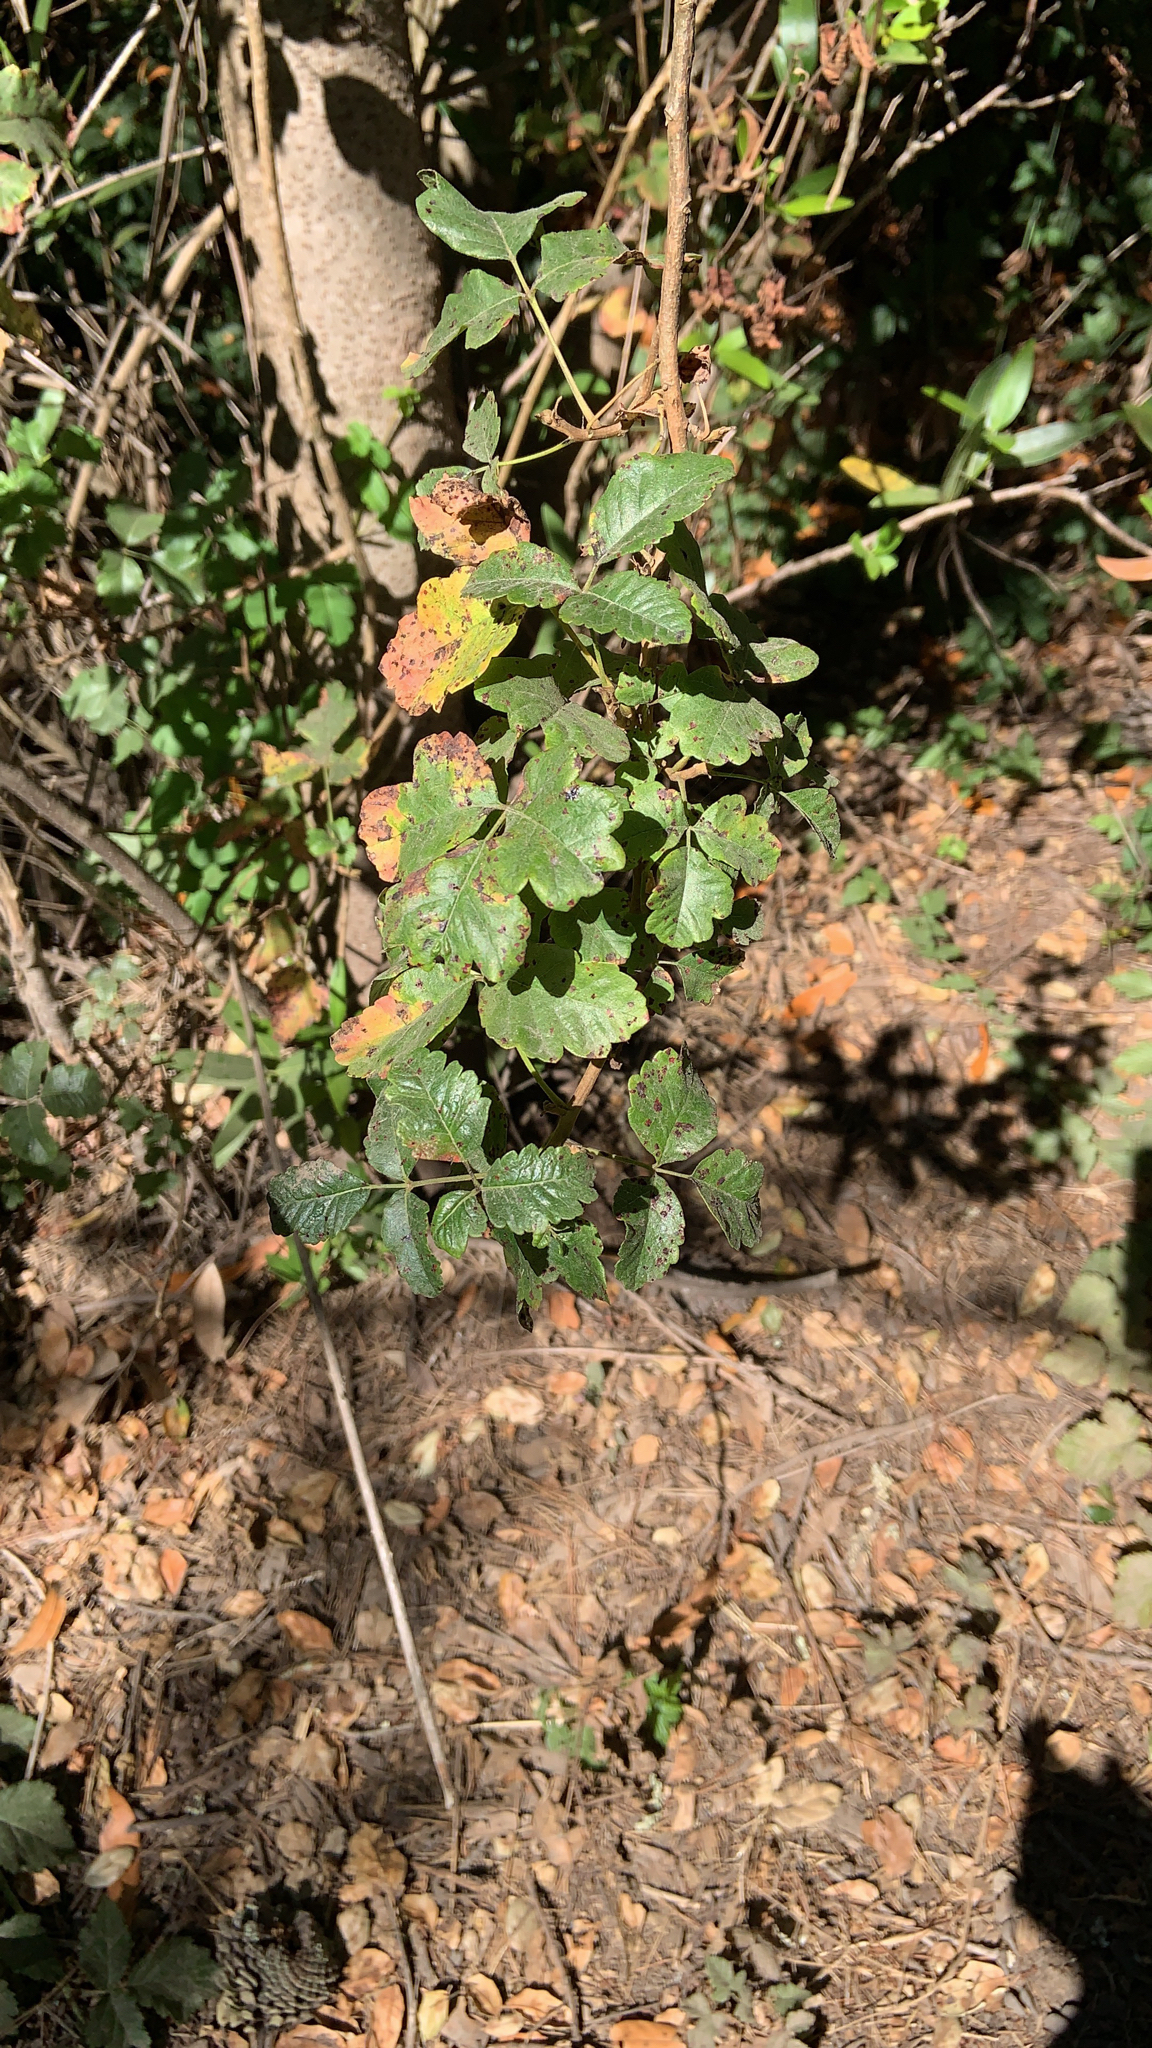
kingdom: Plantae
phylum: Tracheophyta
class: Magnoliopsida
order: Sapindales
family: Anacardiaceae
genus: Toxicodendron
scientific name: Toxicodendron diversilobum
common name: Pacific poison-oak
